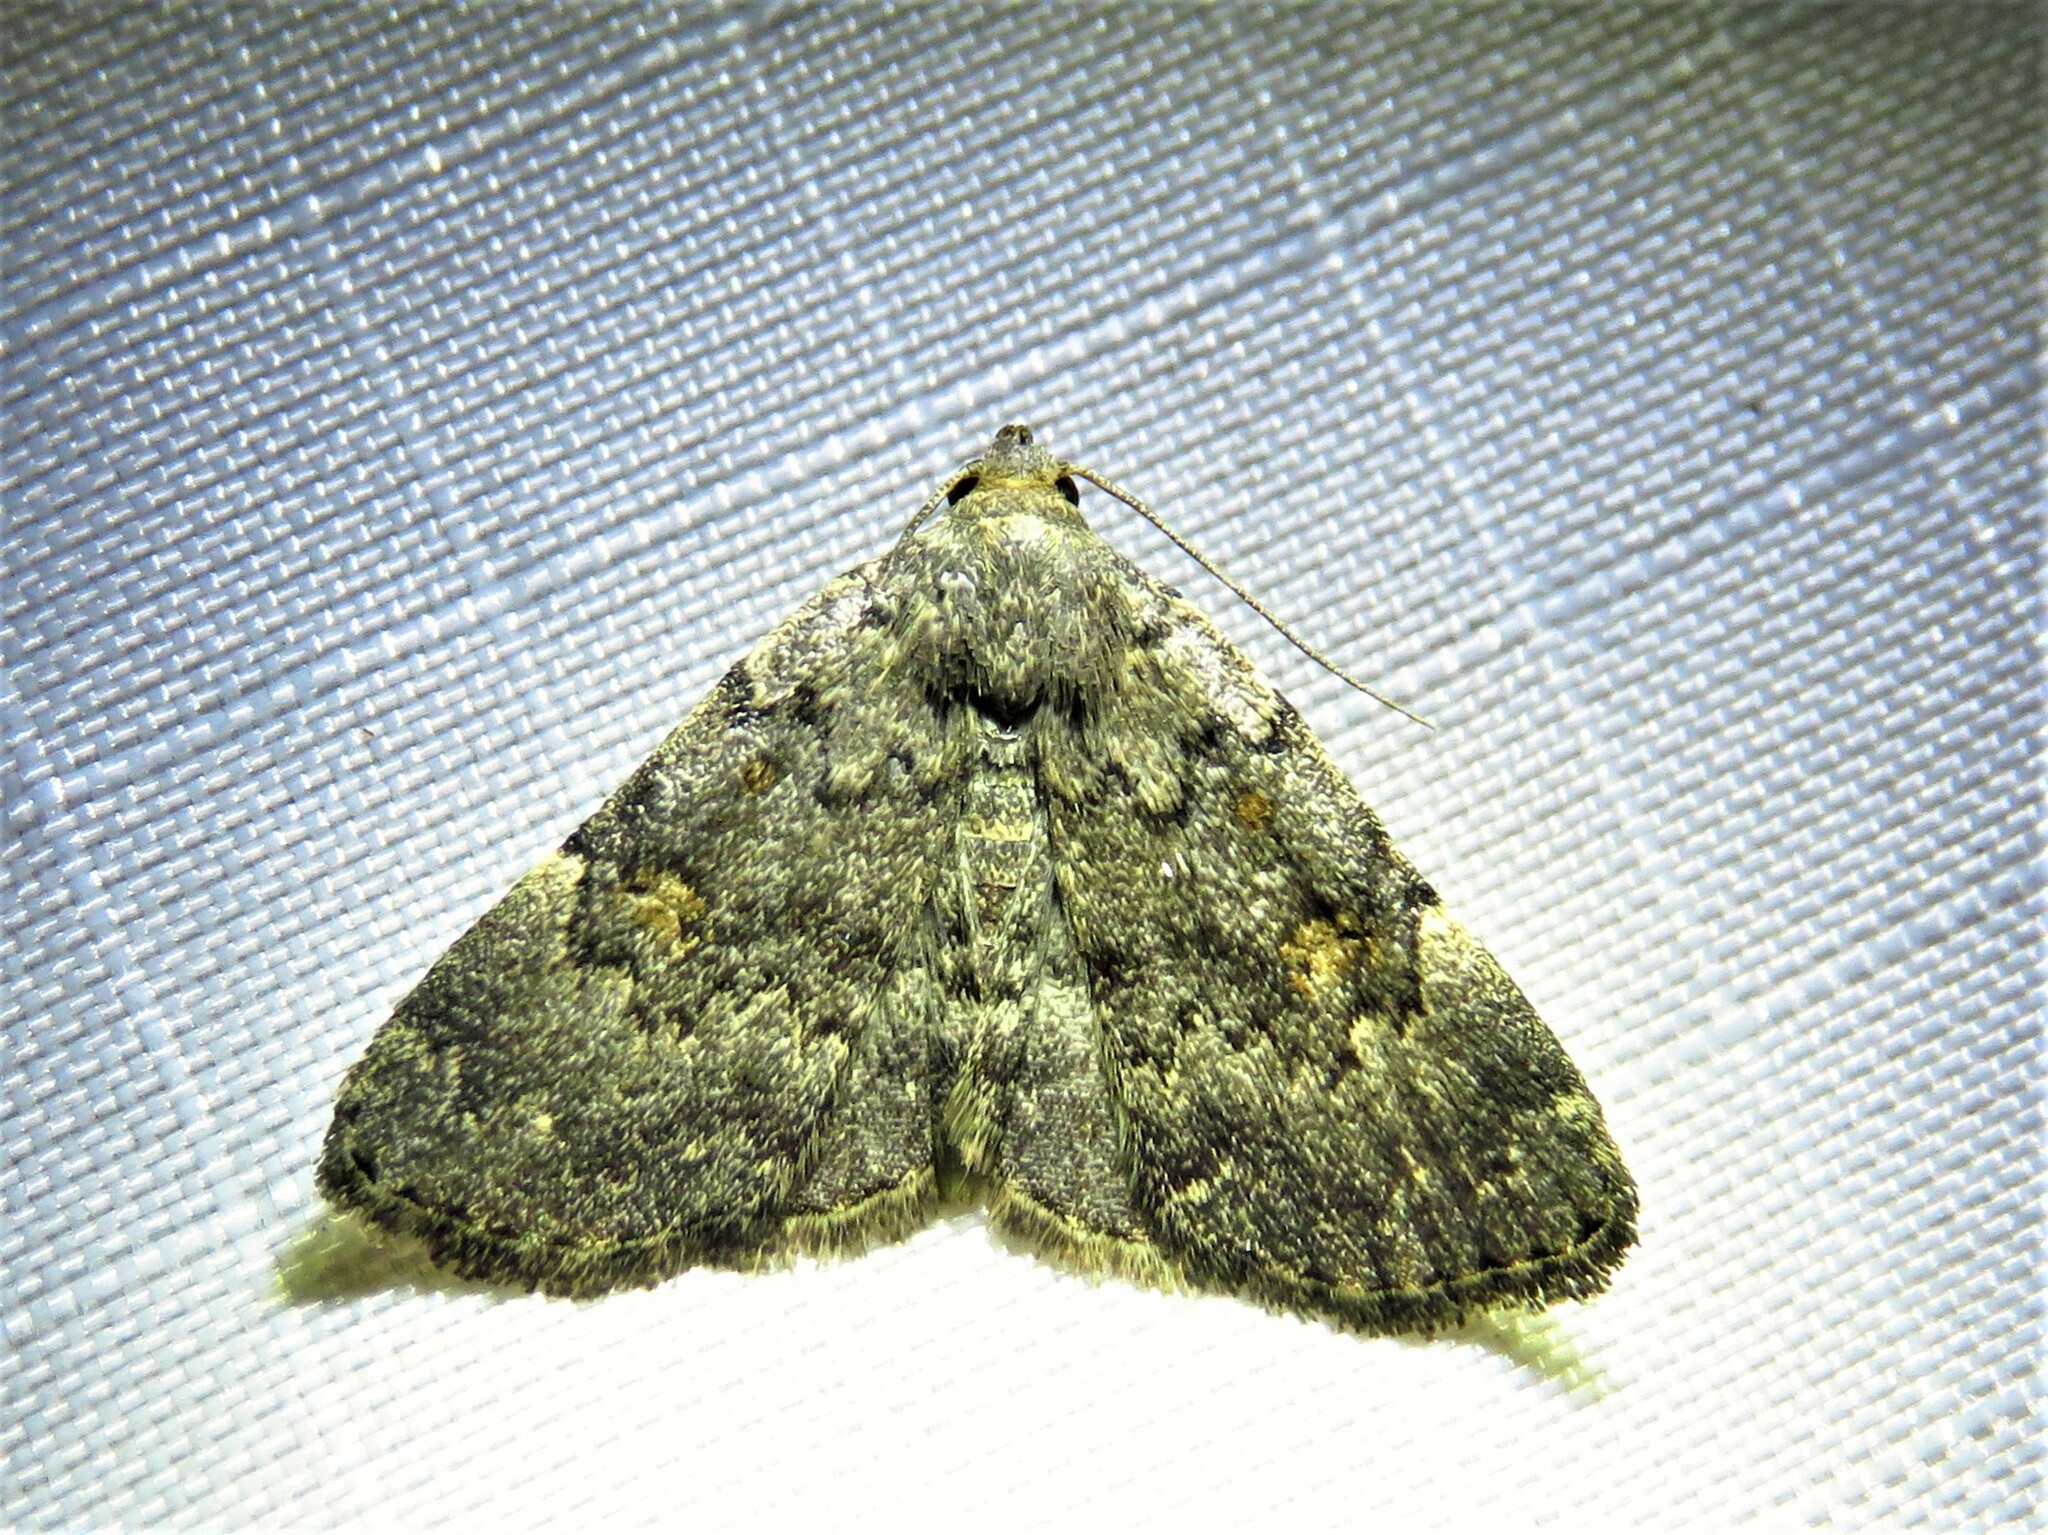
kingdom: Animalia
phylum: Arthropoda
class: Insecta
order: Lepidoptera
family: Erebidae
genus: Idia
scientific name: Idia aemula
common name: Common idia moth
